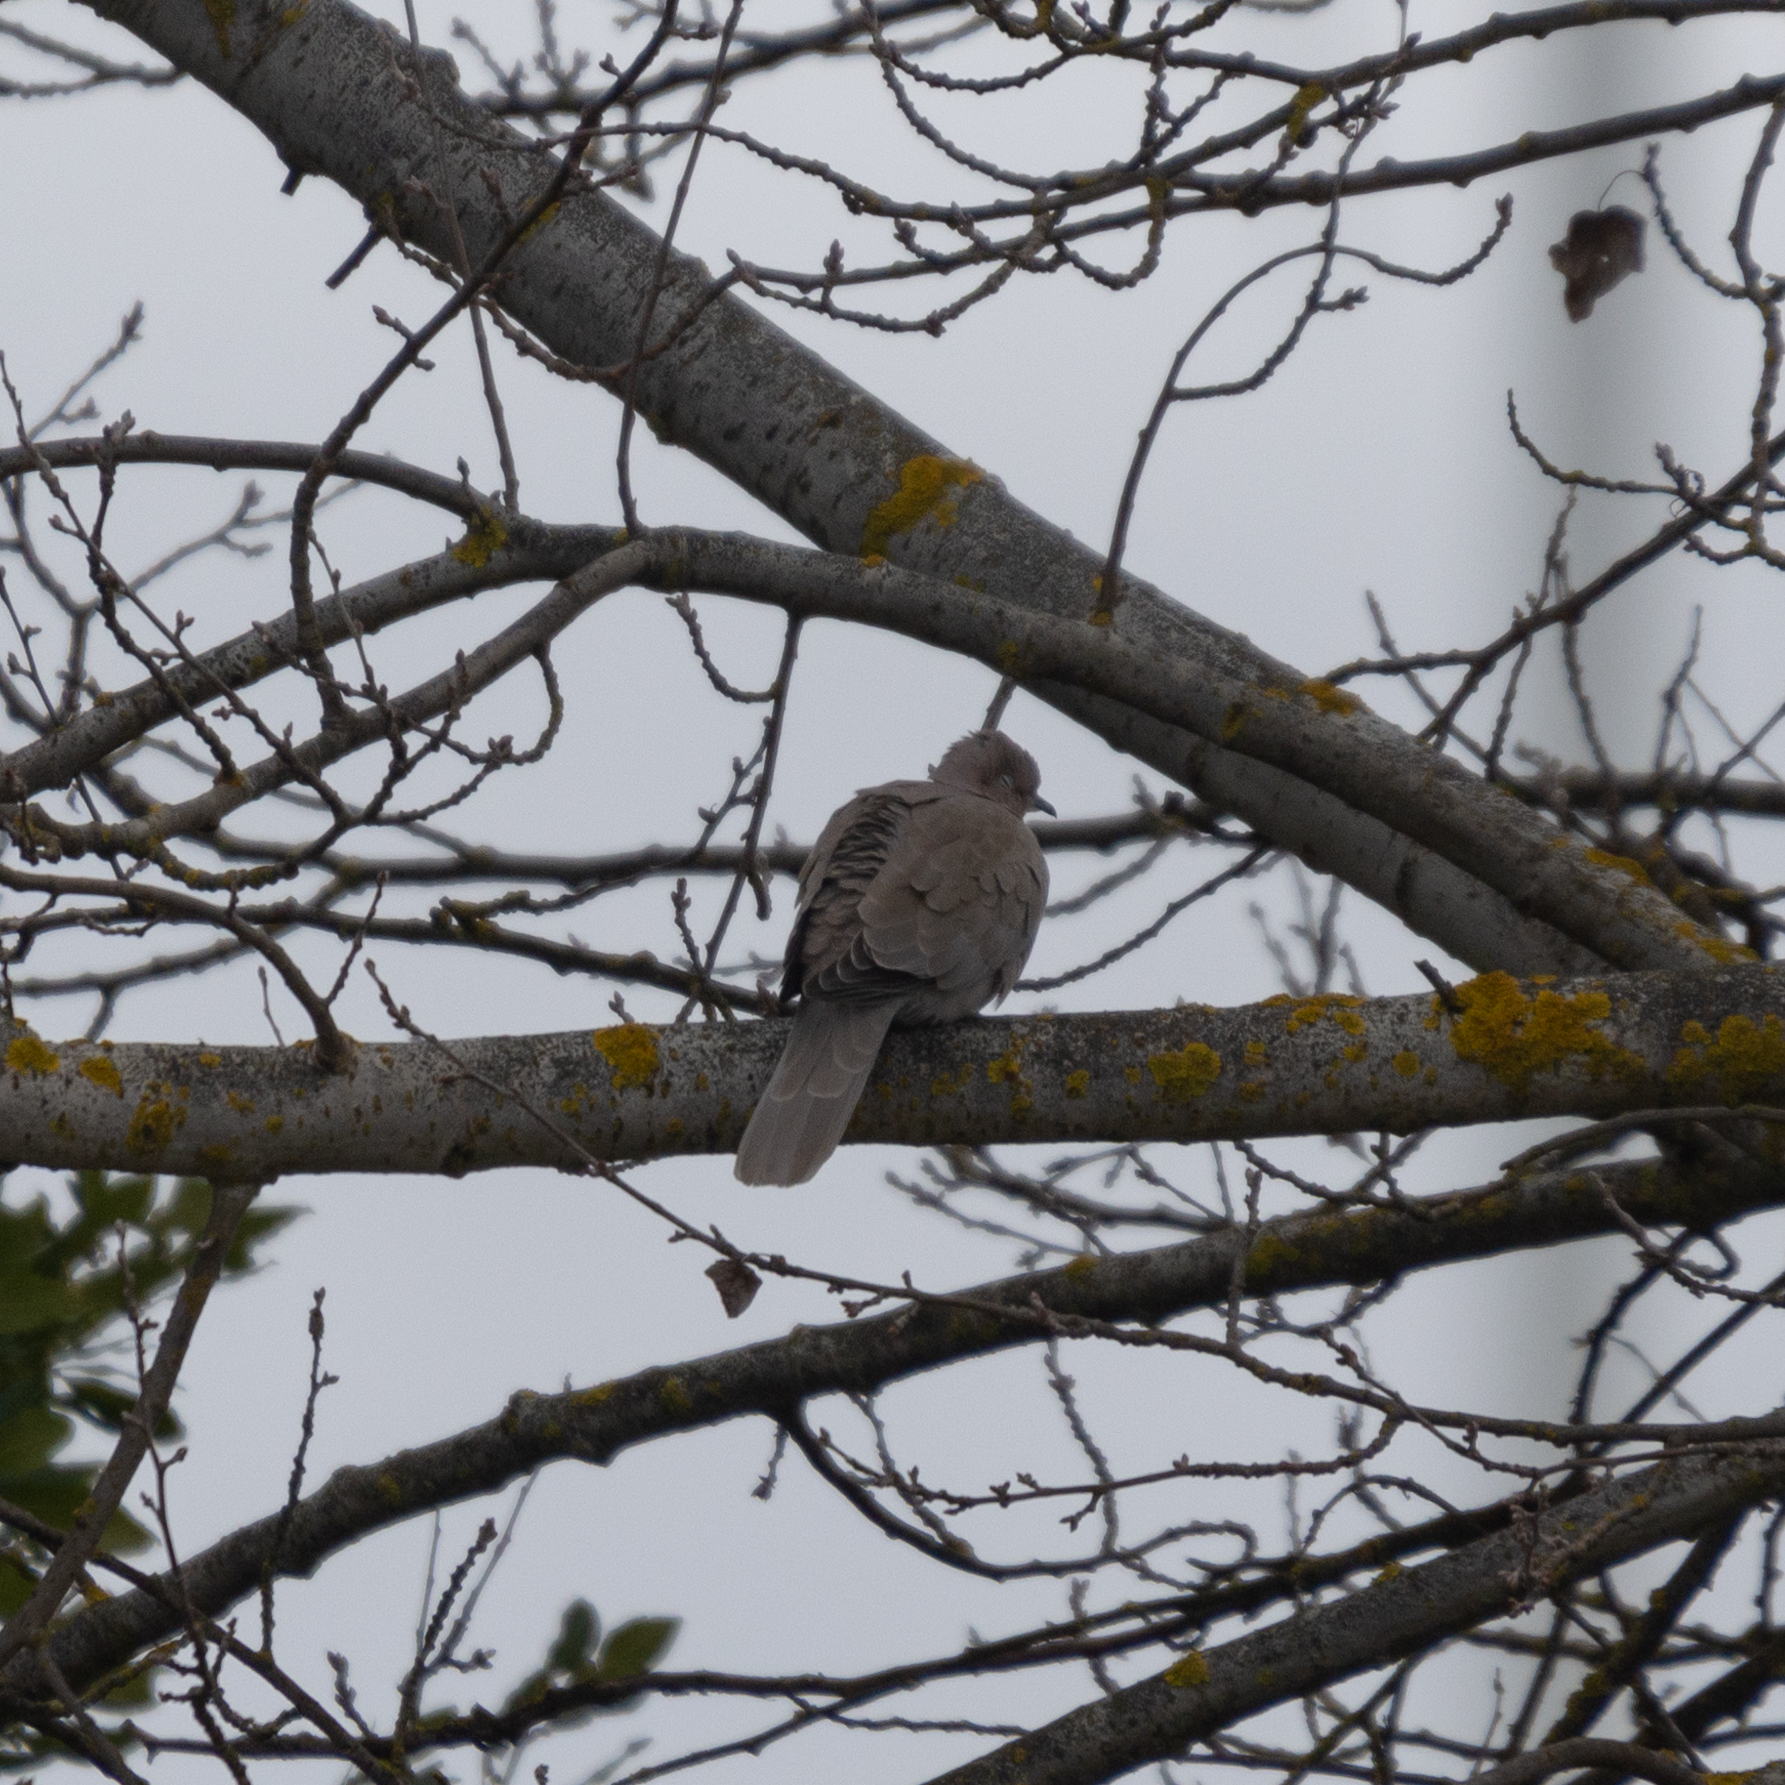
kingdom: Animalia
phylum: Chordata
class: Aves
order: Columbiformes
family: Columbidae
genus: Streptopelia
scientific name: Streptopelia decaocto
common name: Eurasian collared dove
